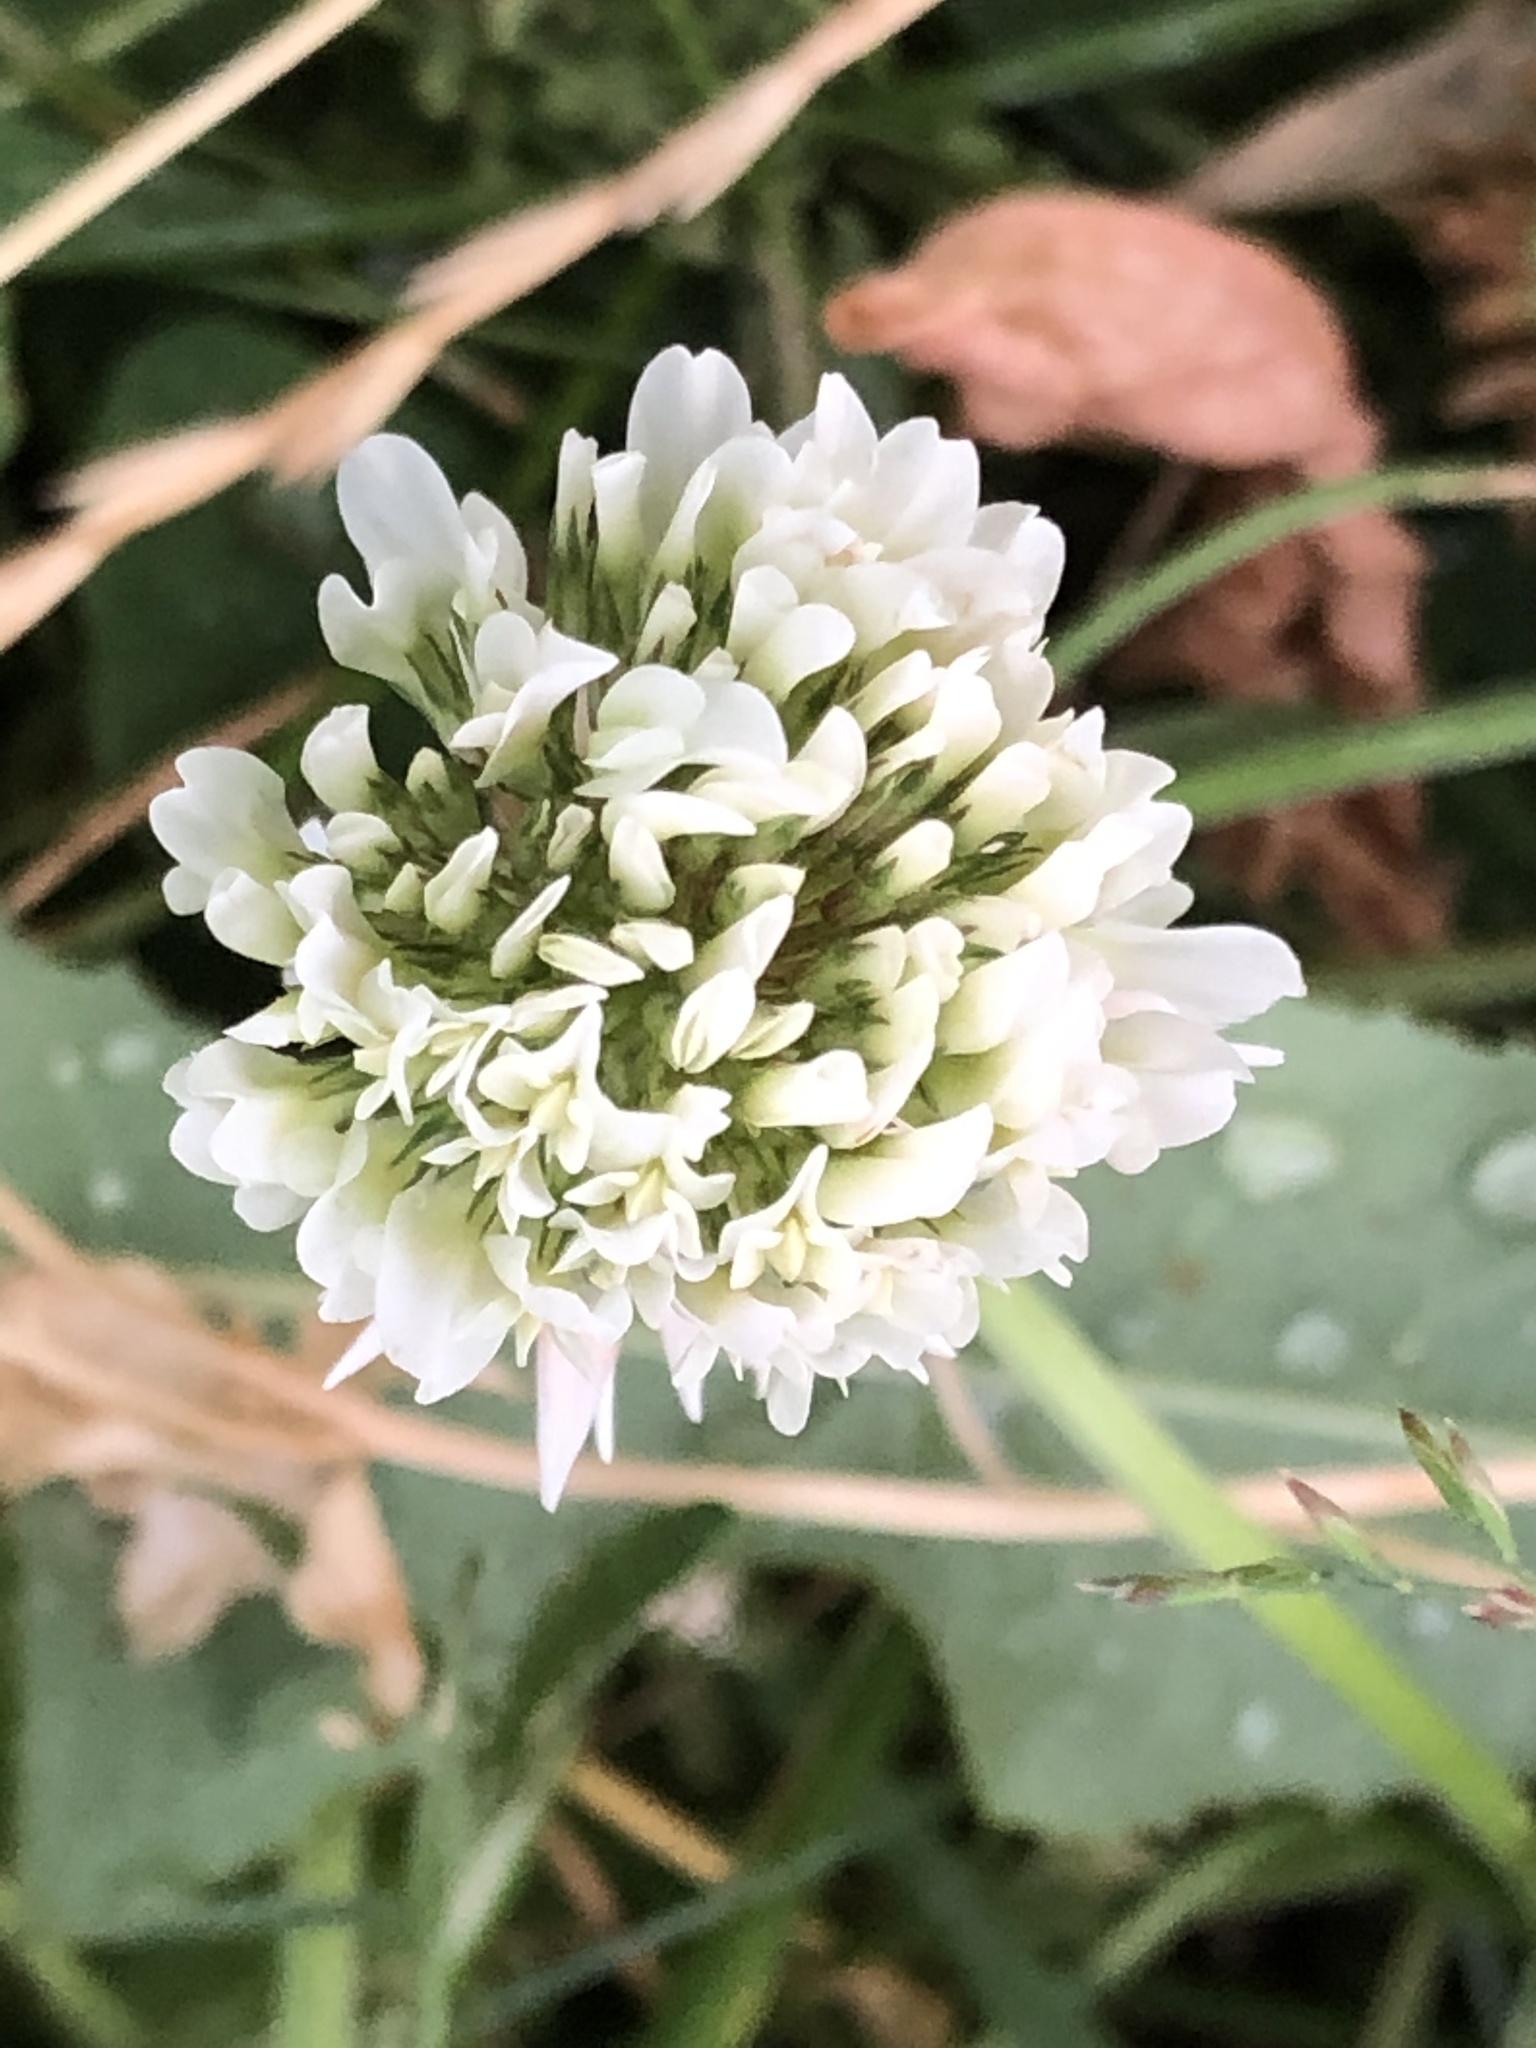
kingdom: Plantae
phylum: Tracheophyta
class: Magnoliopsida
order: Fabales
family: Fabaceae
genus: Trifolium
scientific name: Trifolium repens
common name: White clover
